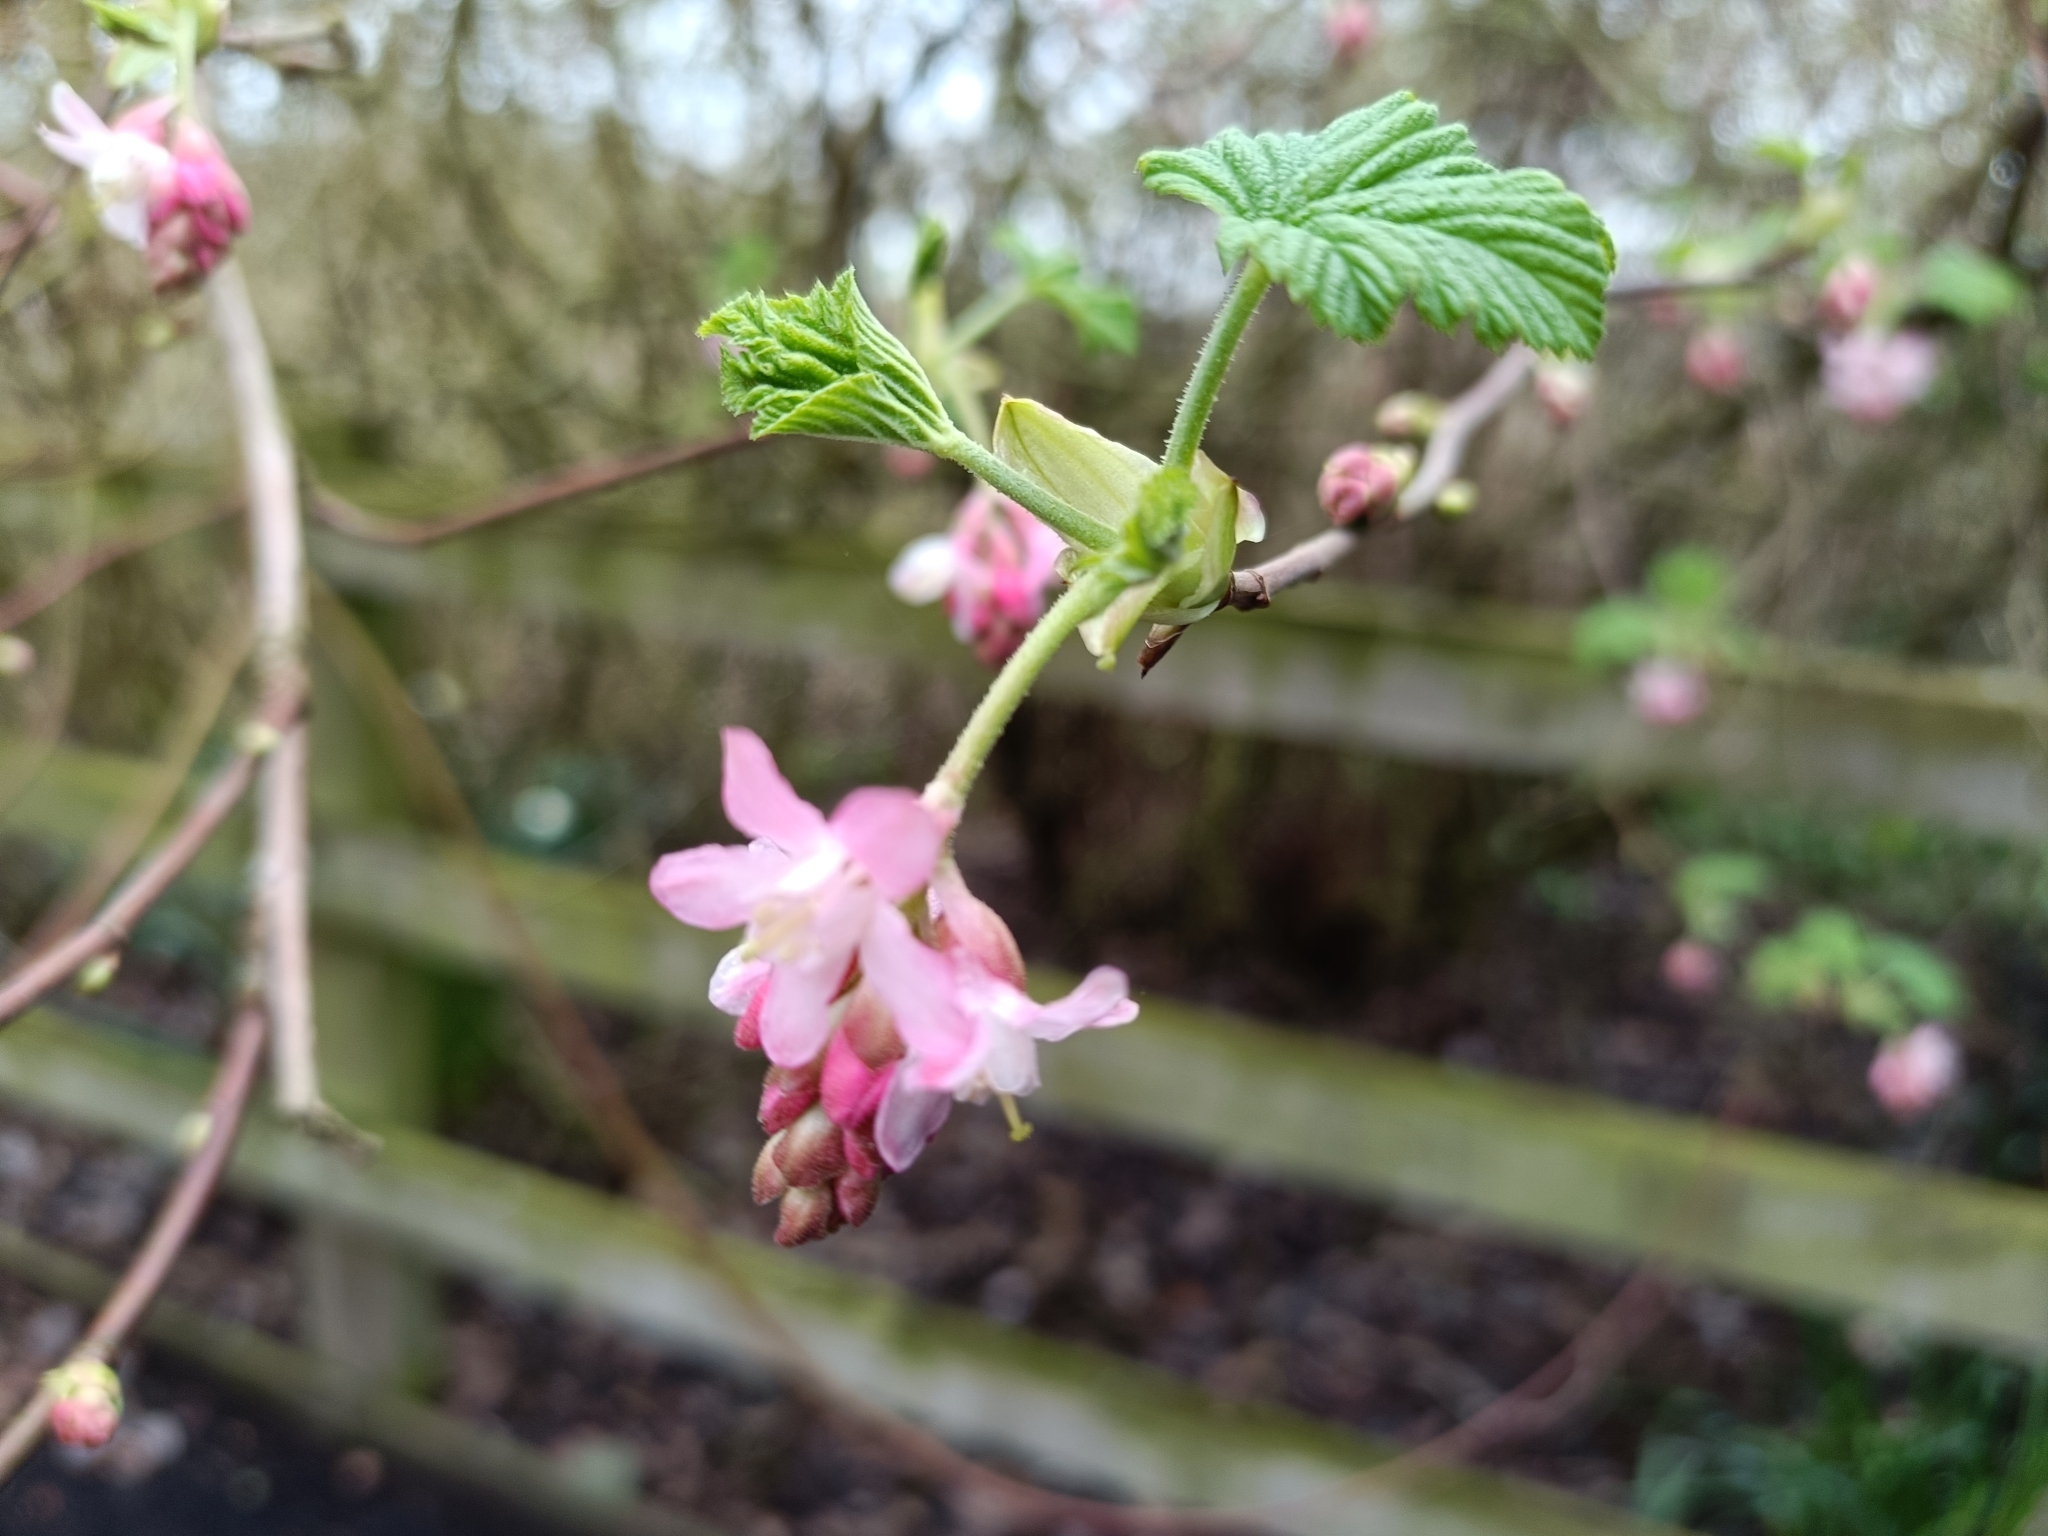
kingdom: Plantae
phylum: Tracheophyta
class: Magnoliopsida
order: Saxifragales
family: Grossulariaceae
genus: Ribes
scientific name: Ribes sanguineum
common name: Flowering currant
